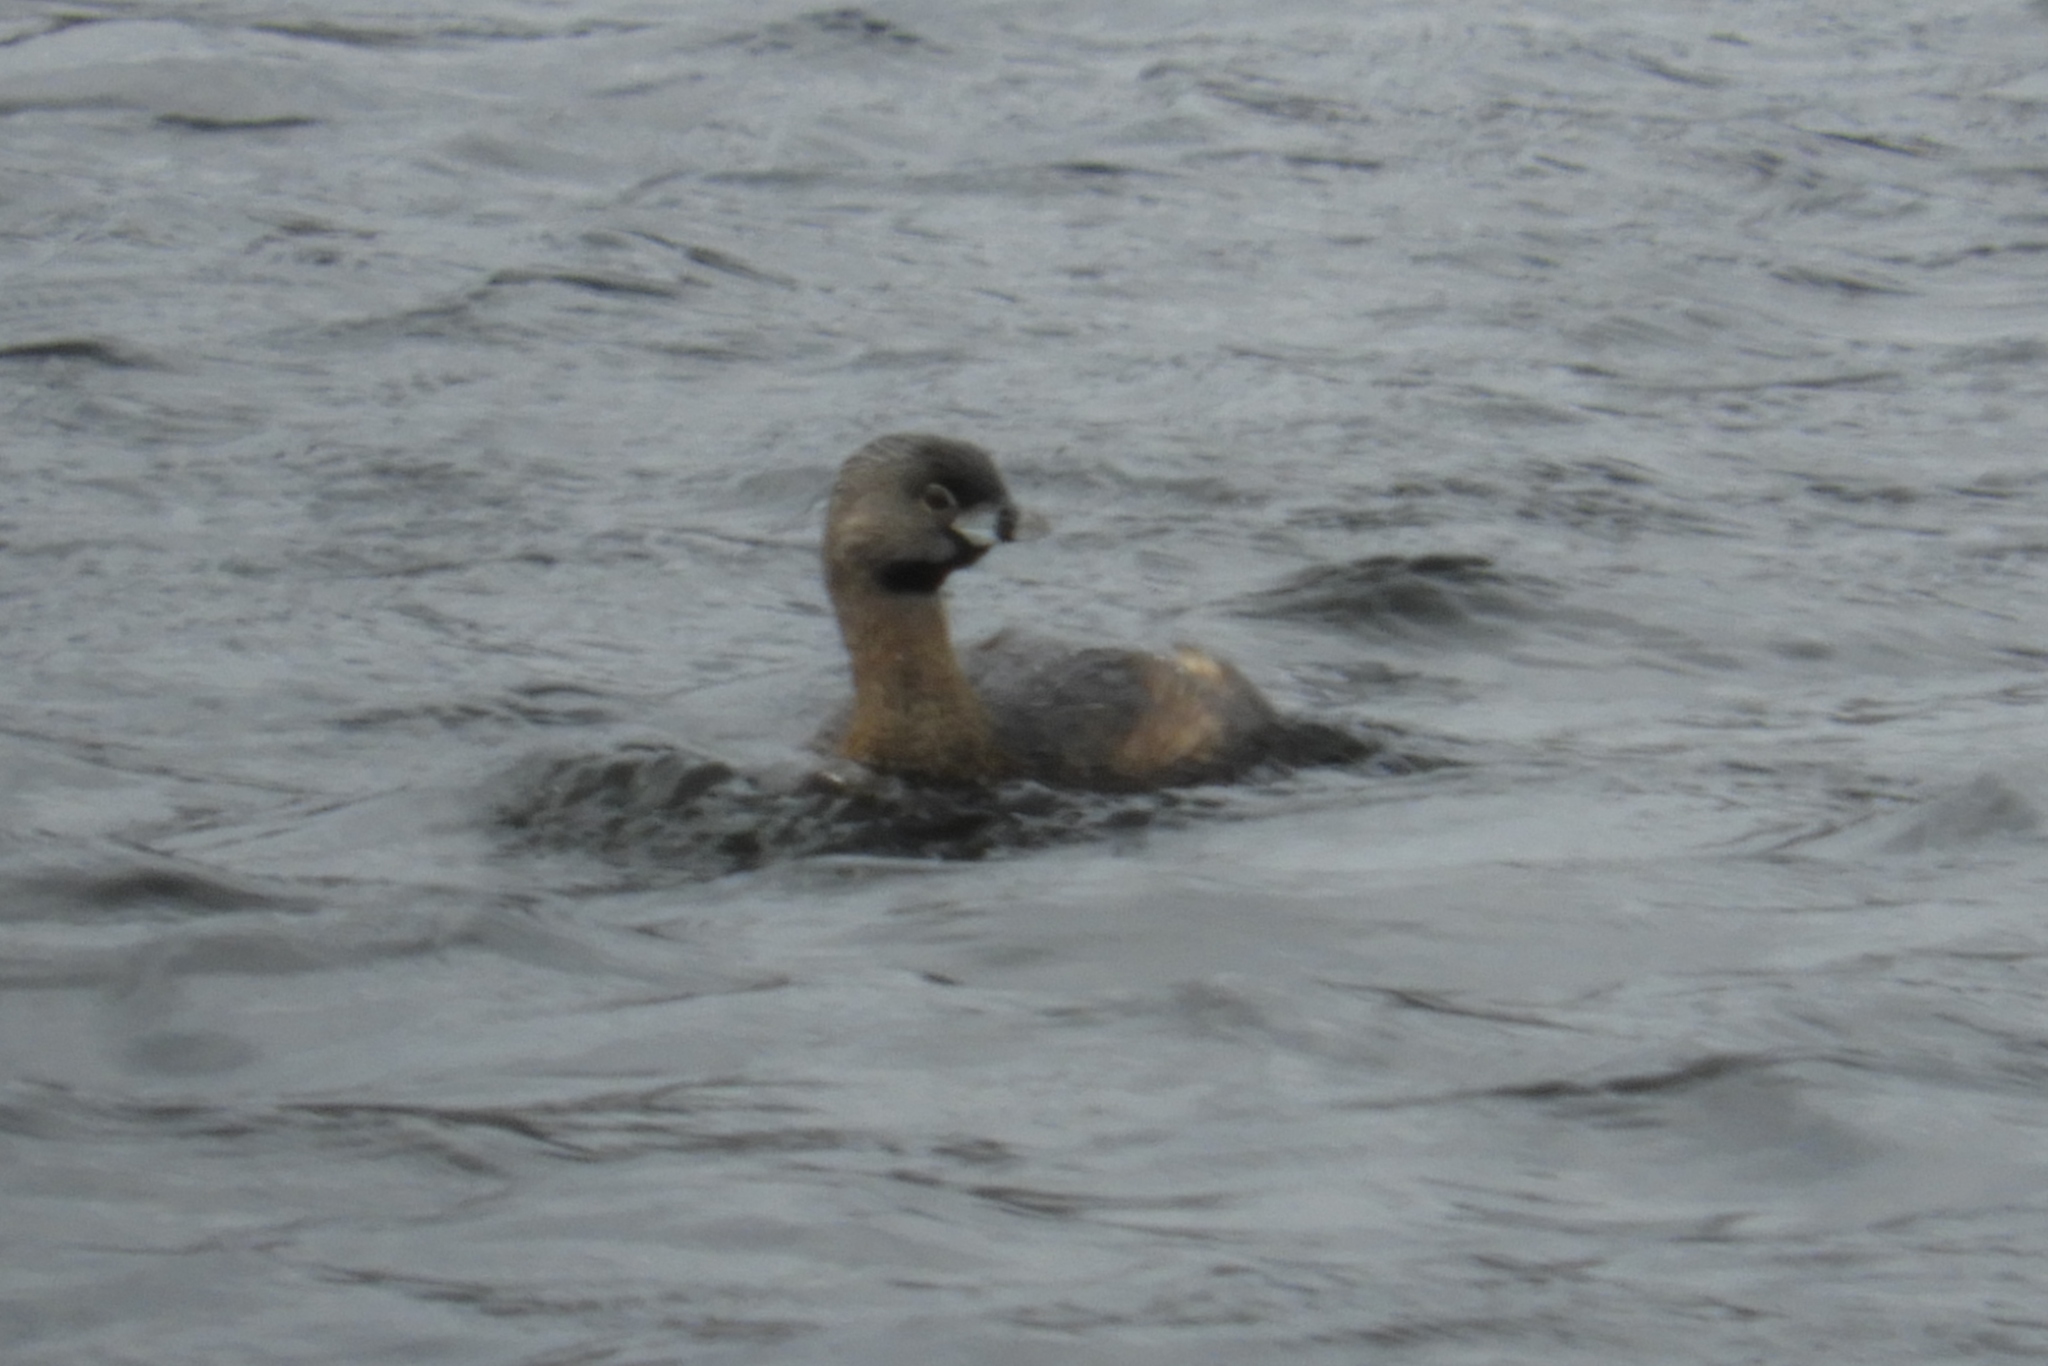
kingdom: Animalia
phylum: Chordata
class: Aves
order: Podicipediformes
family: Podicipedidae
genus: Podilymbus
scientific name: Podilymbus podiceps
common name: Pied-billed grebe
